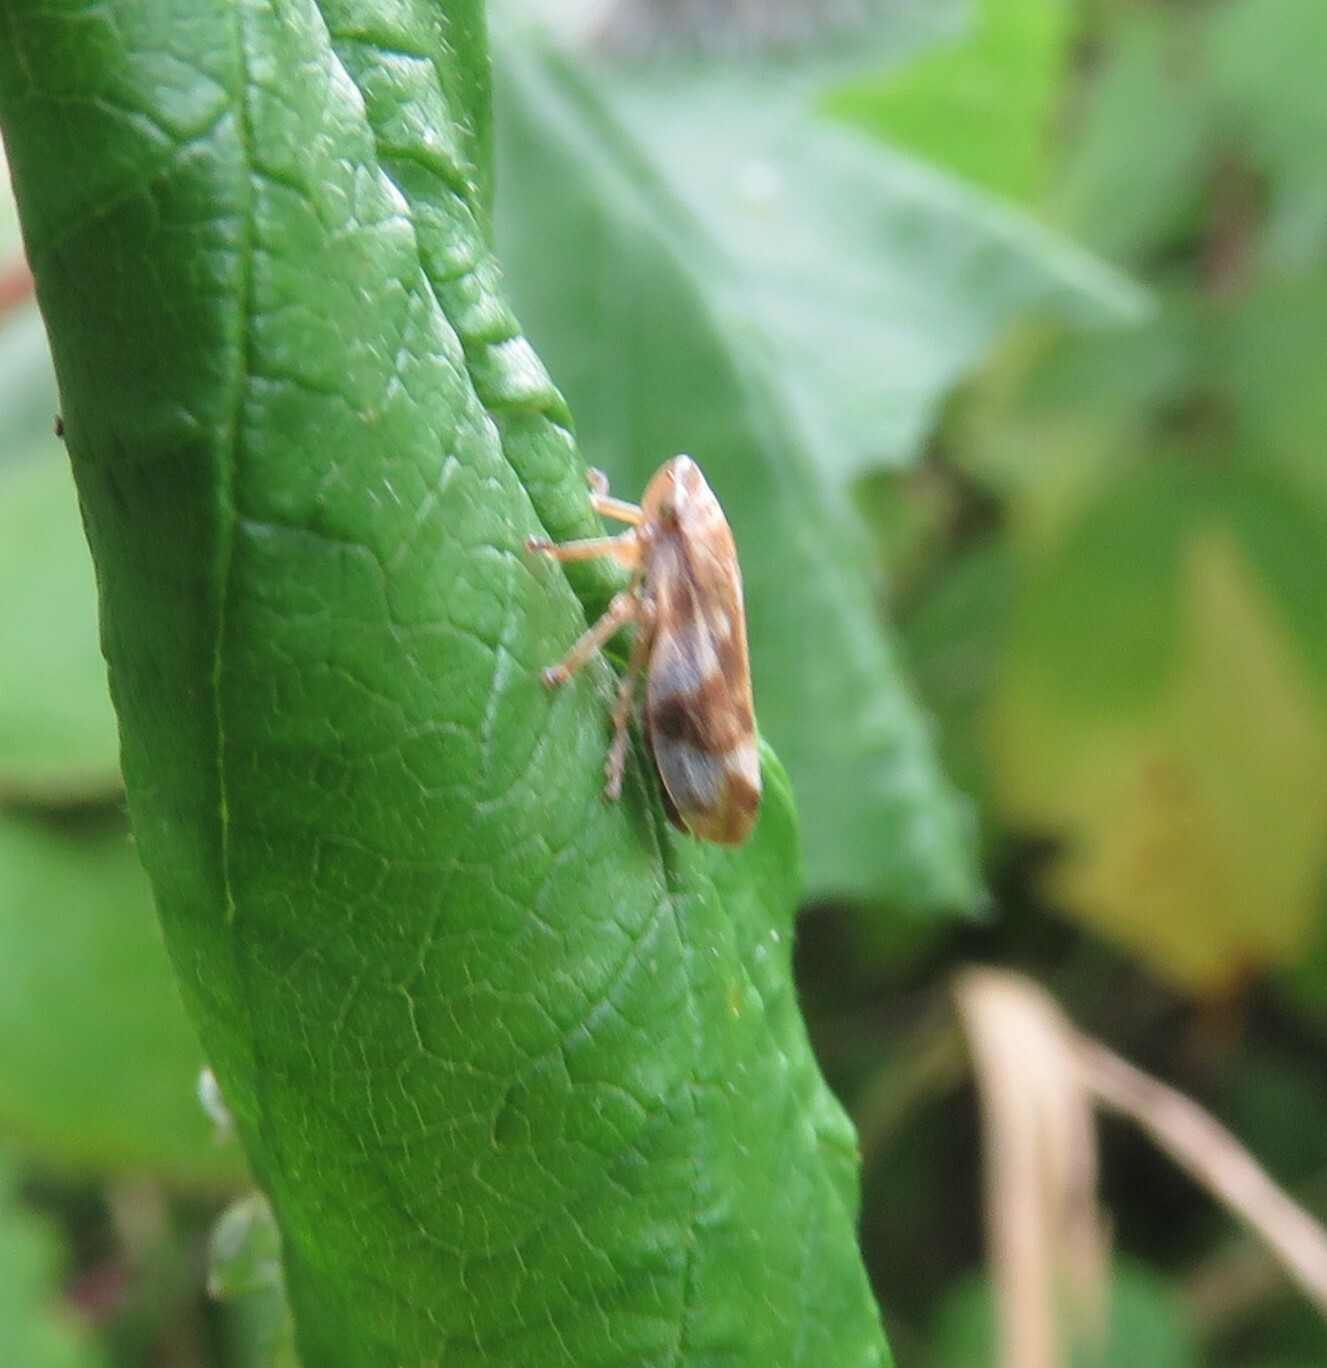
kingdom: Animalia
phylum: Arthropoda
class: Insecta
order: Hemiptera
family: Aphrophoridae
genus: Philaenus
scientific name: Philaenus spumarius
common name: Meadow spittlebug
